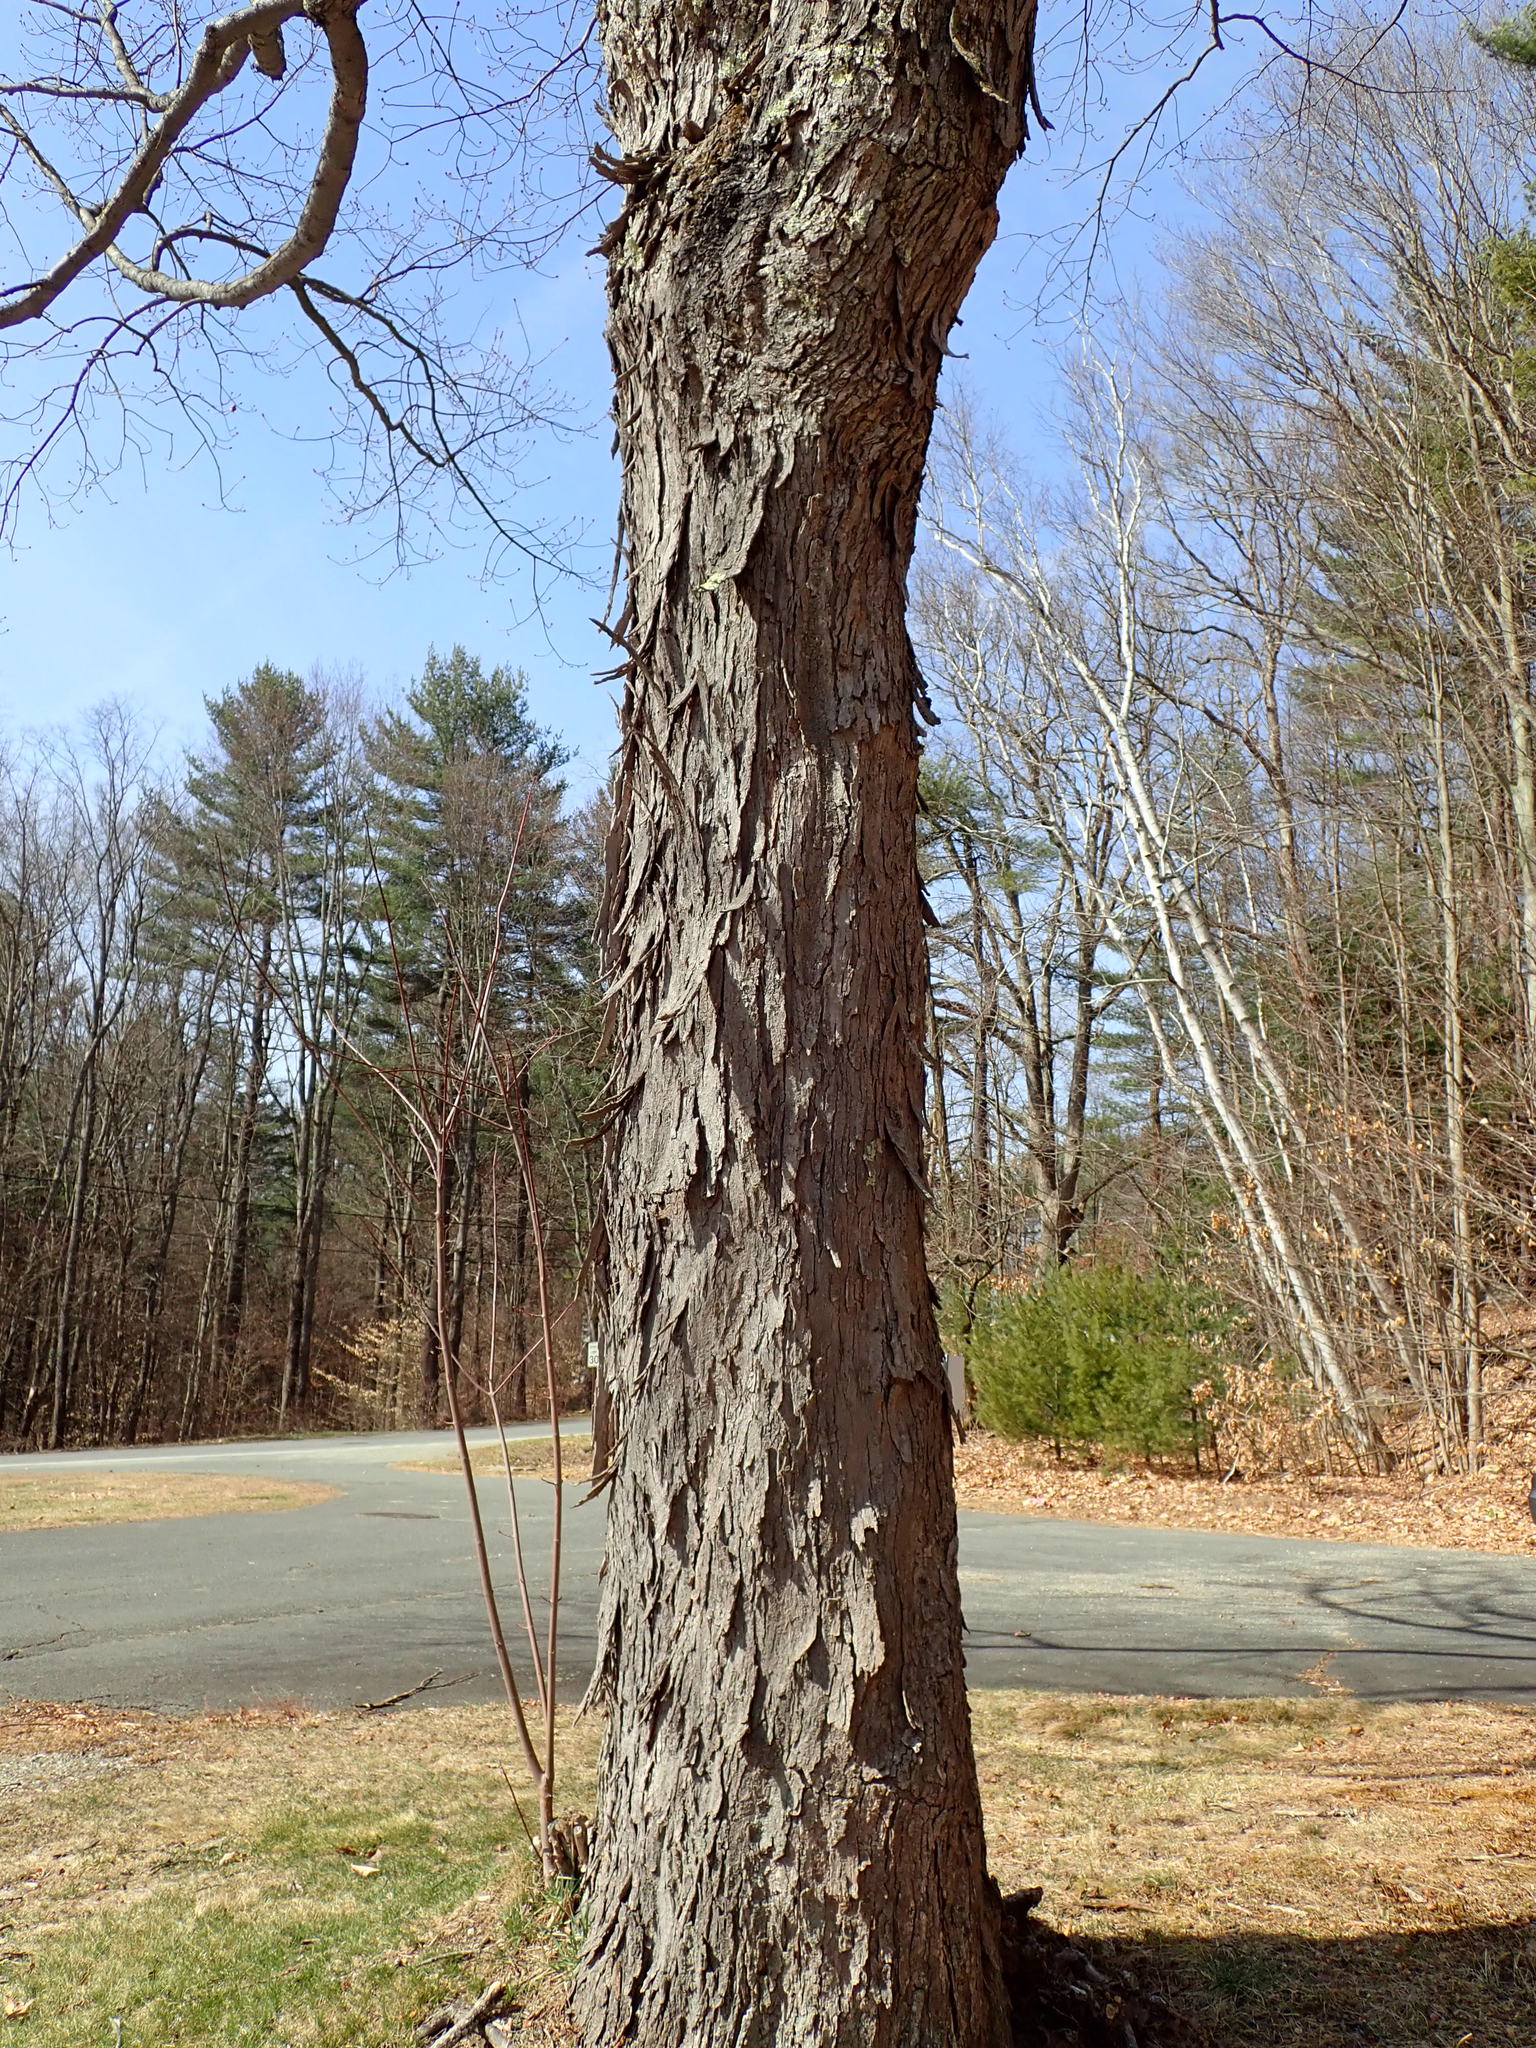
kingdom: Plantae
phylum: Tracheophyta
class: Magnoliopsida
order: Fagales
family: Juglandaceae
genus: Carya
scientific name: Carya ovata
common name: Shagbark hickory
